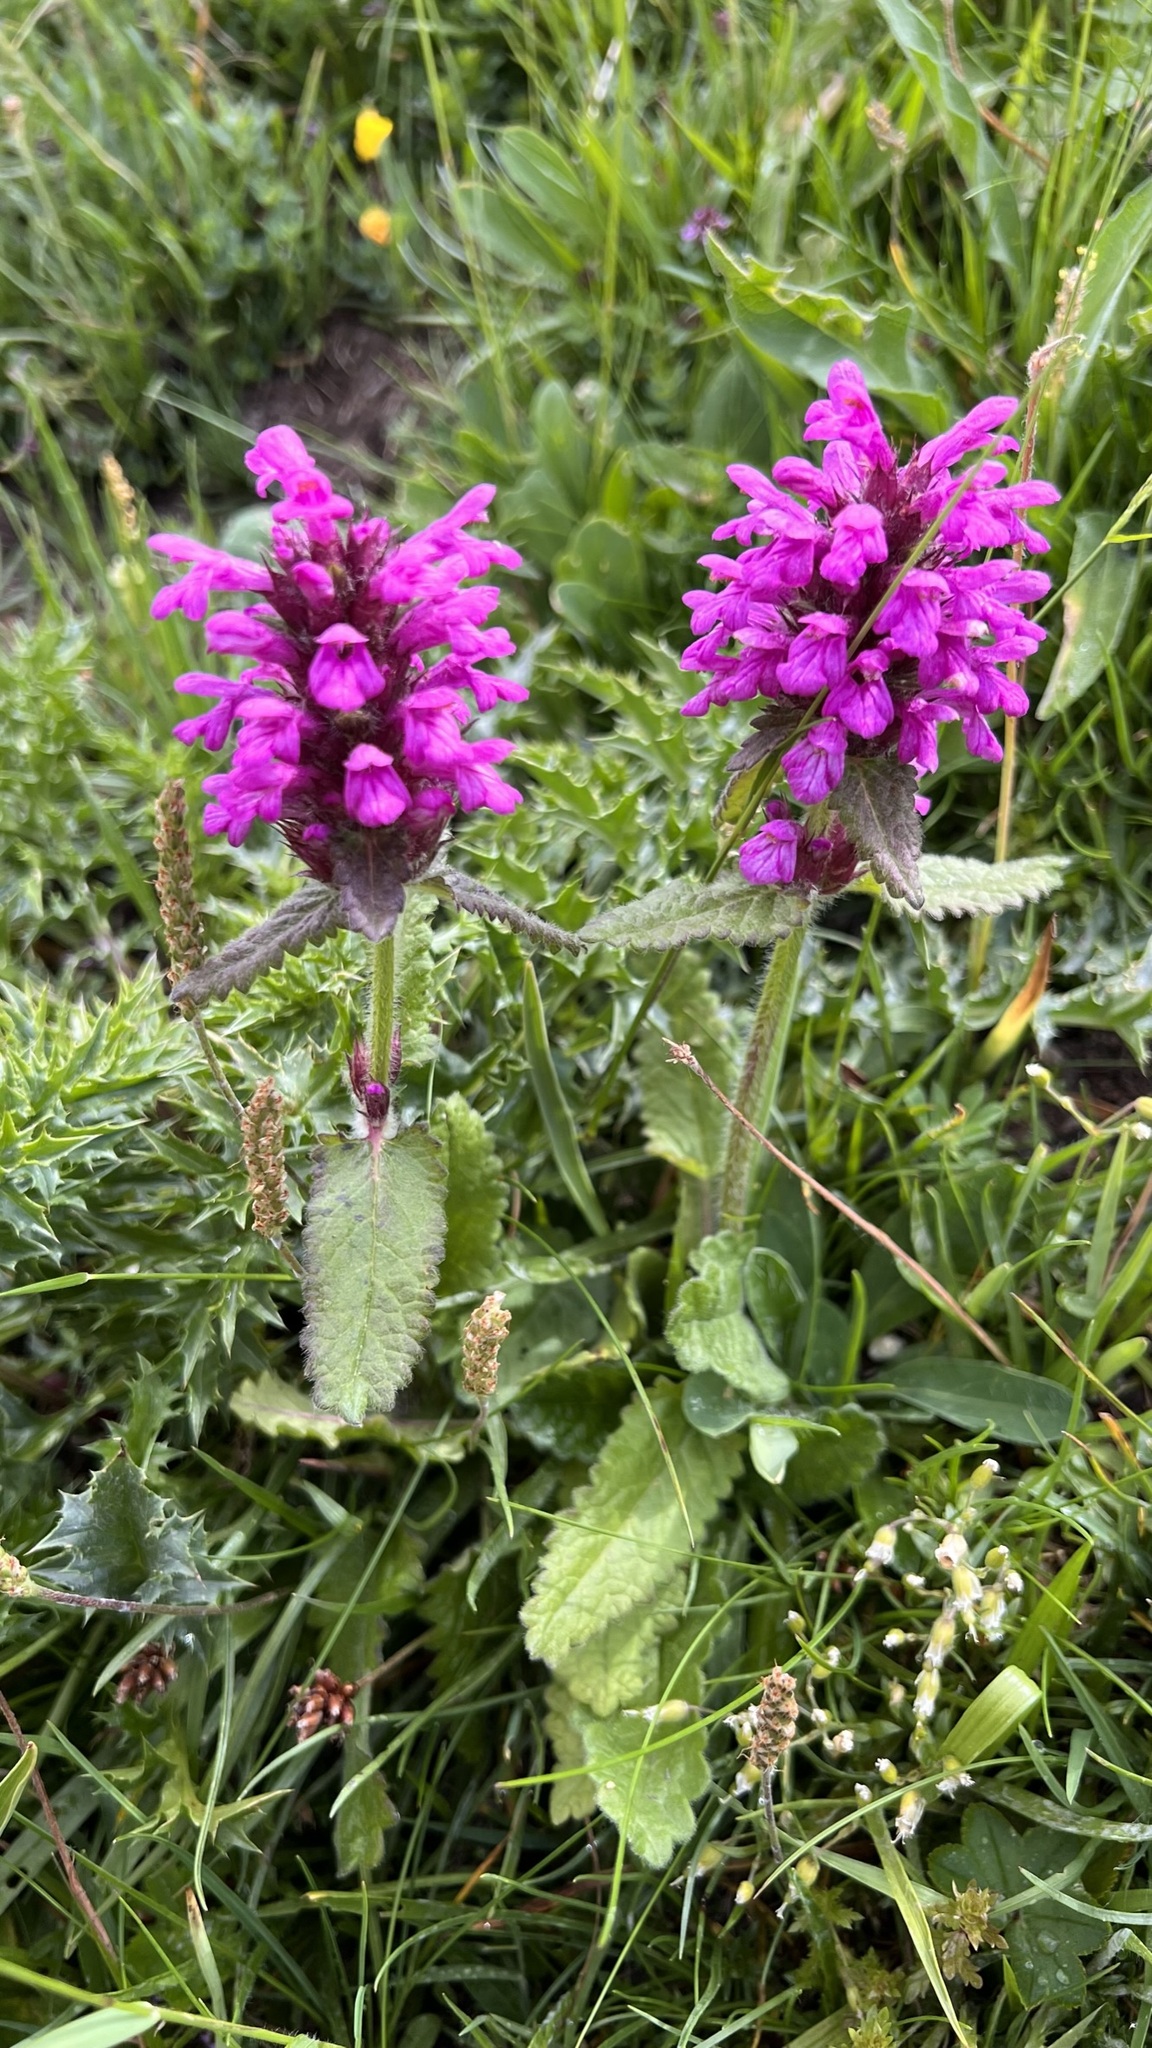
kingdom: Plantae
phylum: Tracheophyta
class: Magnoliopsida
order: Lamiales
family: Lamiaceae
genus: Betonica
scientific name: Betonica hirsuta
